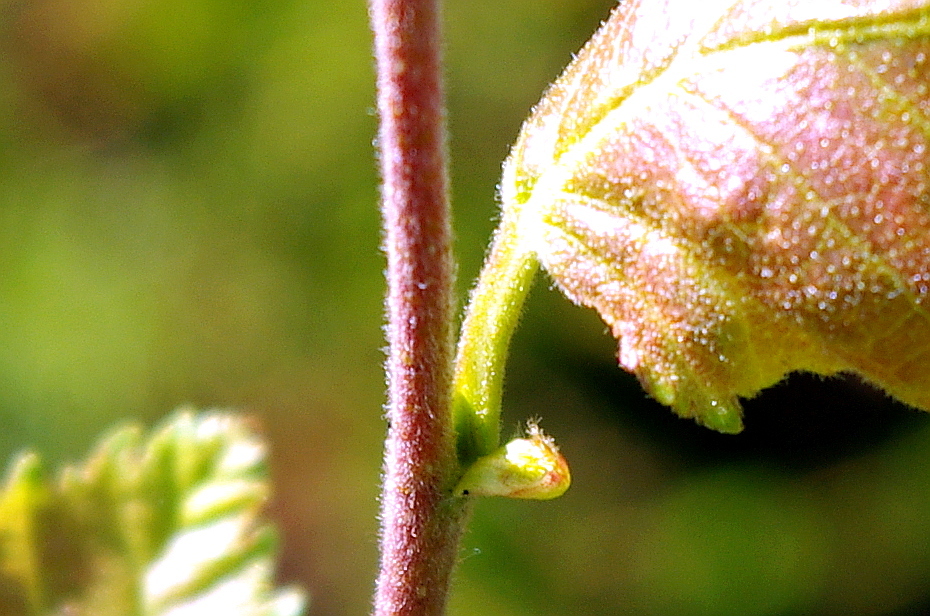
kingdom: Plantae
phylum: Tracheophyta
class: Magnoliopsida
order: Fagales
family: Betulaceae
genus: Betula
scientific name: Betula pubescens
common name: Downy birch
